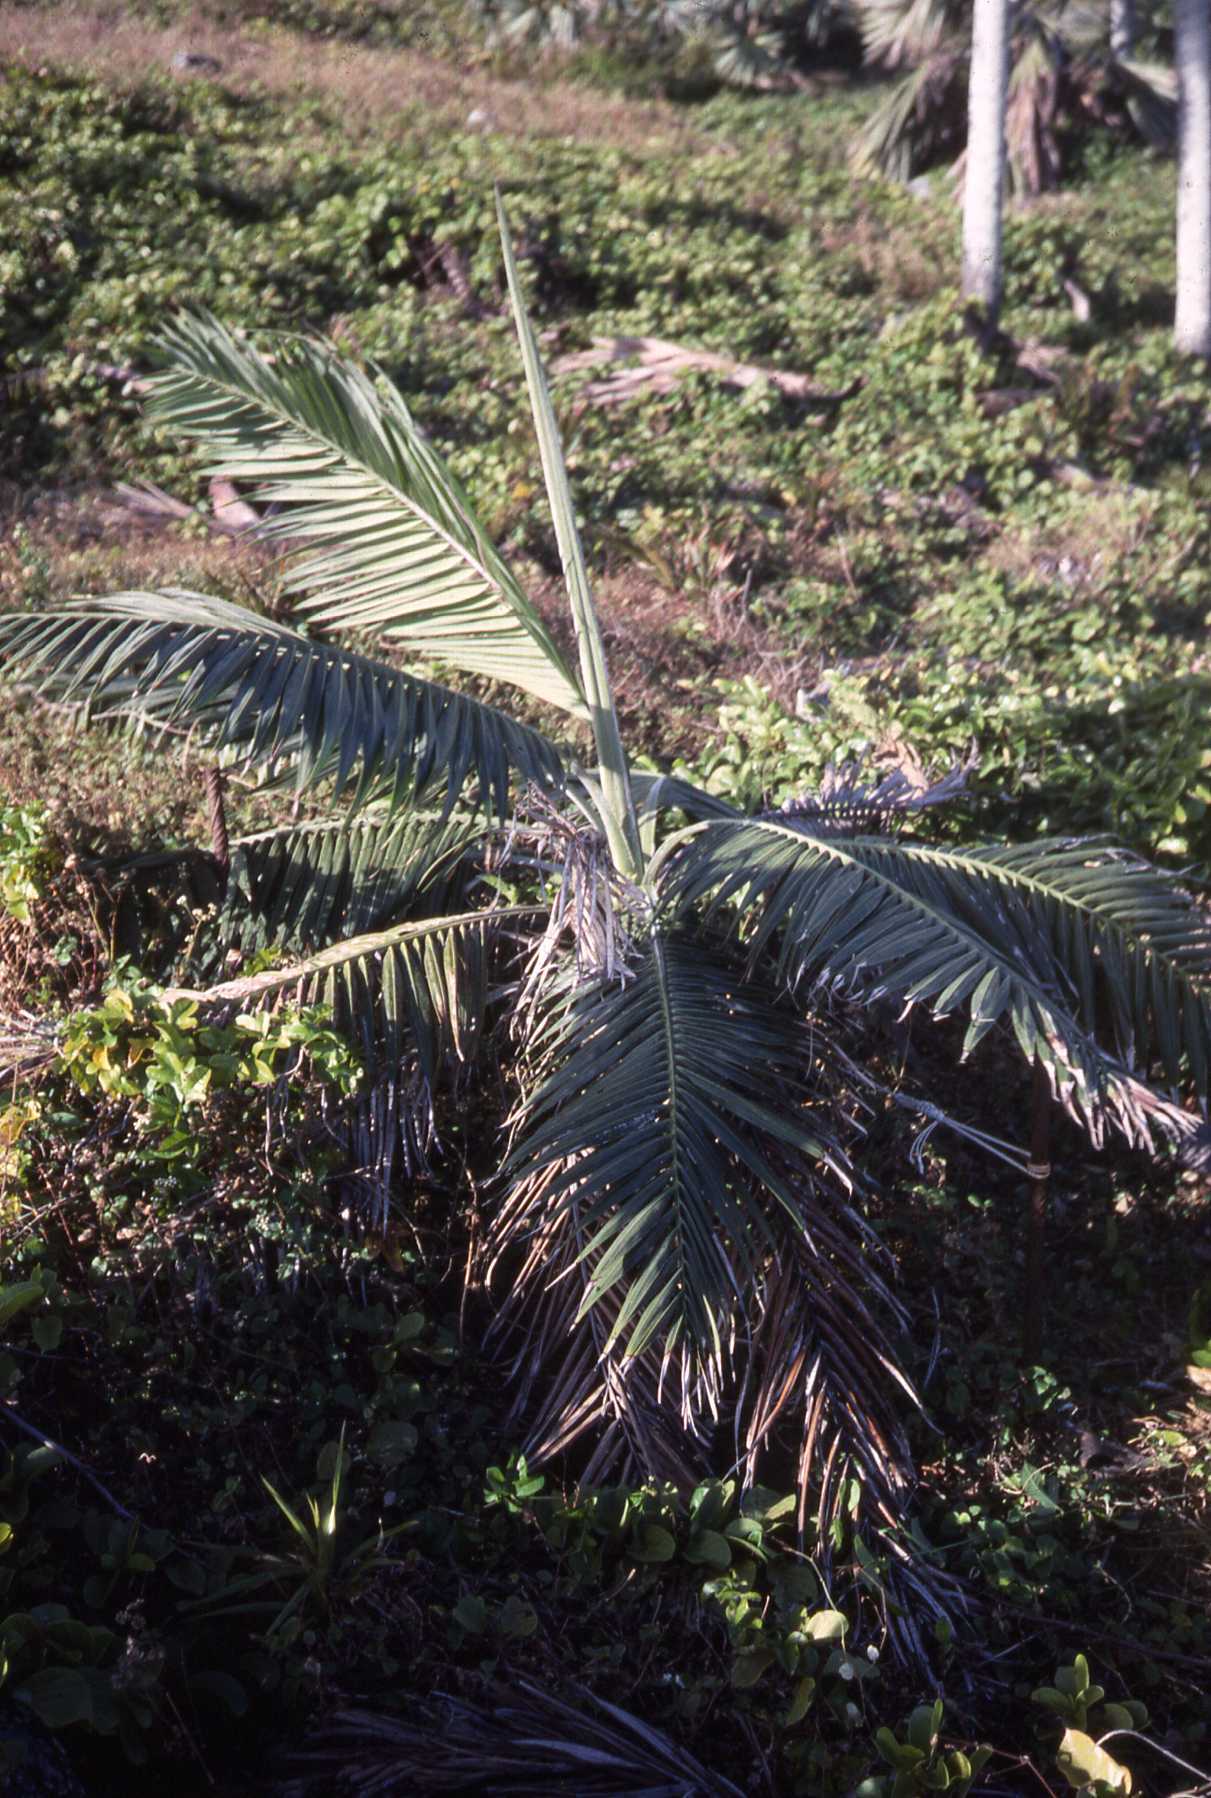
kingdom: Plantae
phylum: Tracheophyta
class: Liliopsida
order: Arecales
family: Arecaceae
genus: Dictyosperma
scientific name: Dictyosperma album
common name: Common princess palm
